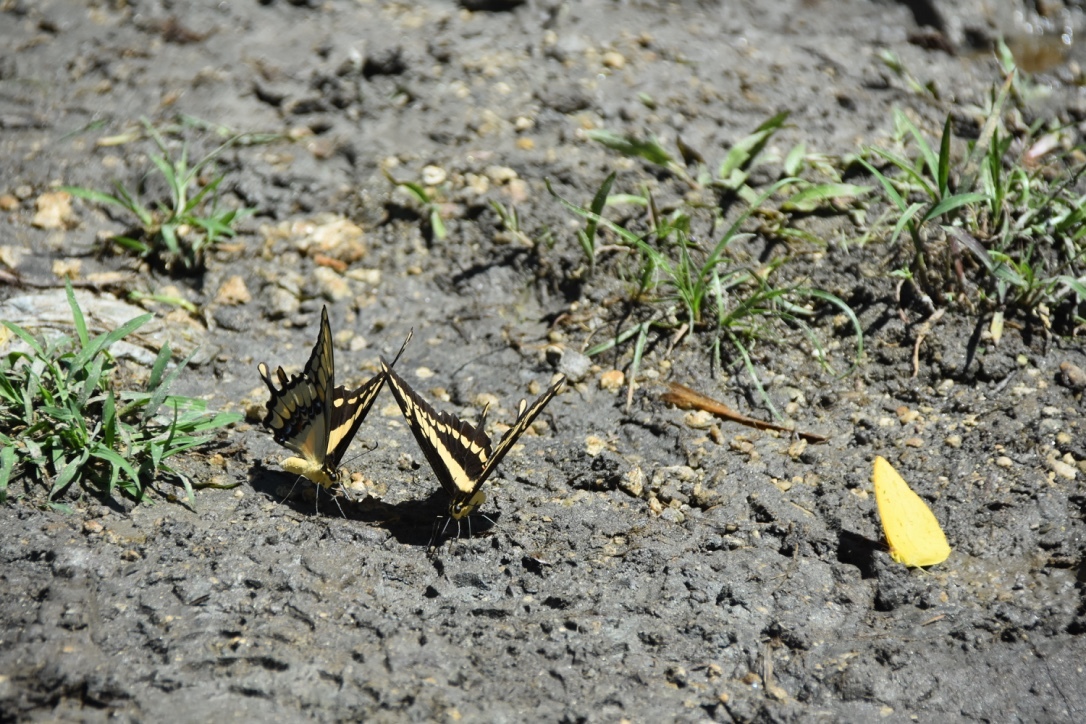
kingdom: Animalia
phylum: Arthropoda
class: Insecta
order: Lepidoptera
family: Papilionidae
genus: Papilio
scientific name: Papilio thoas
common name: King swallowtail
